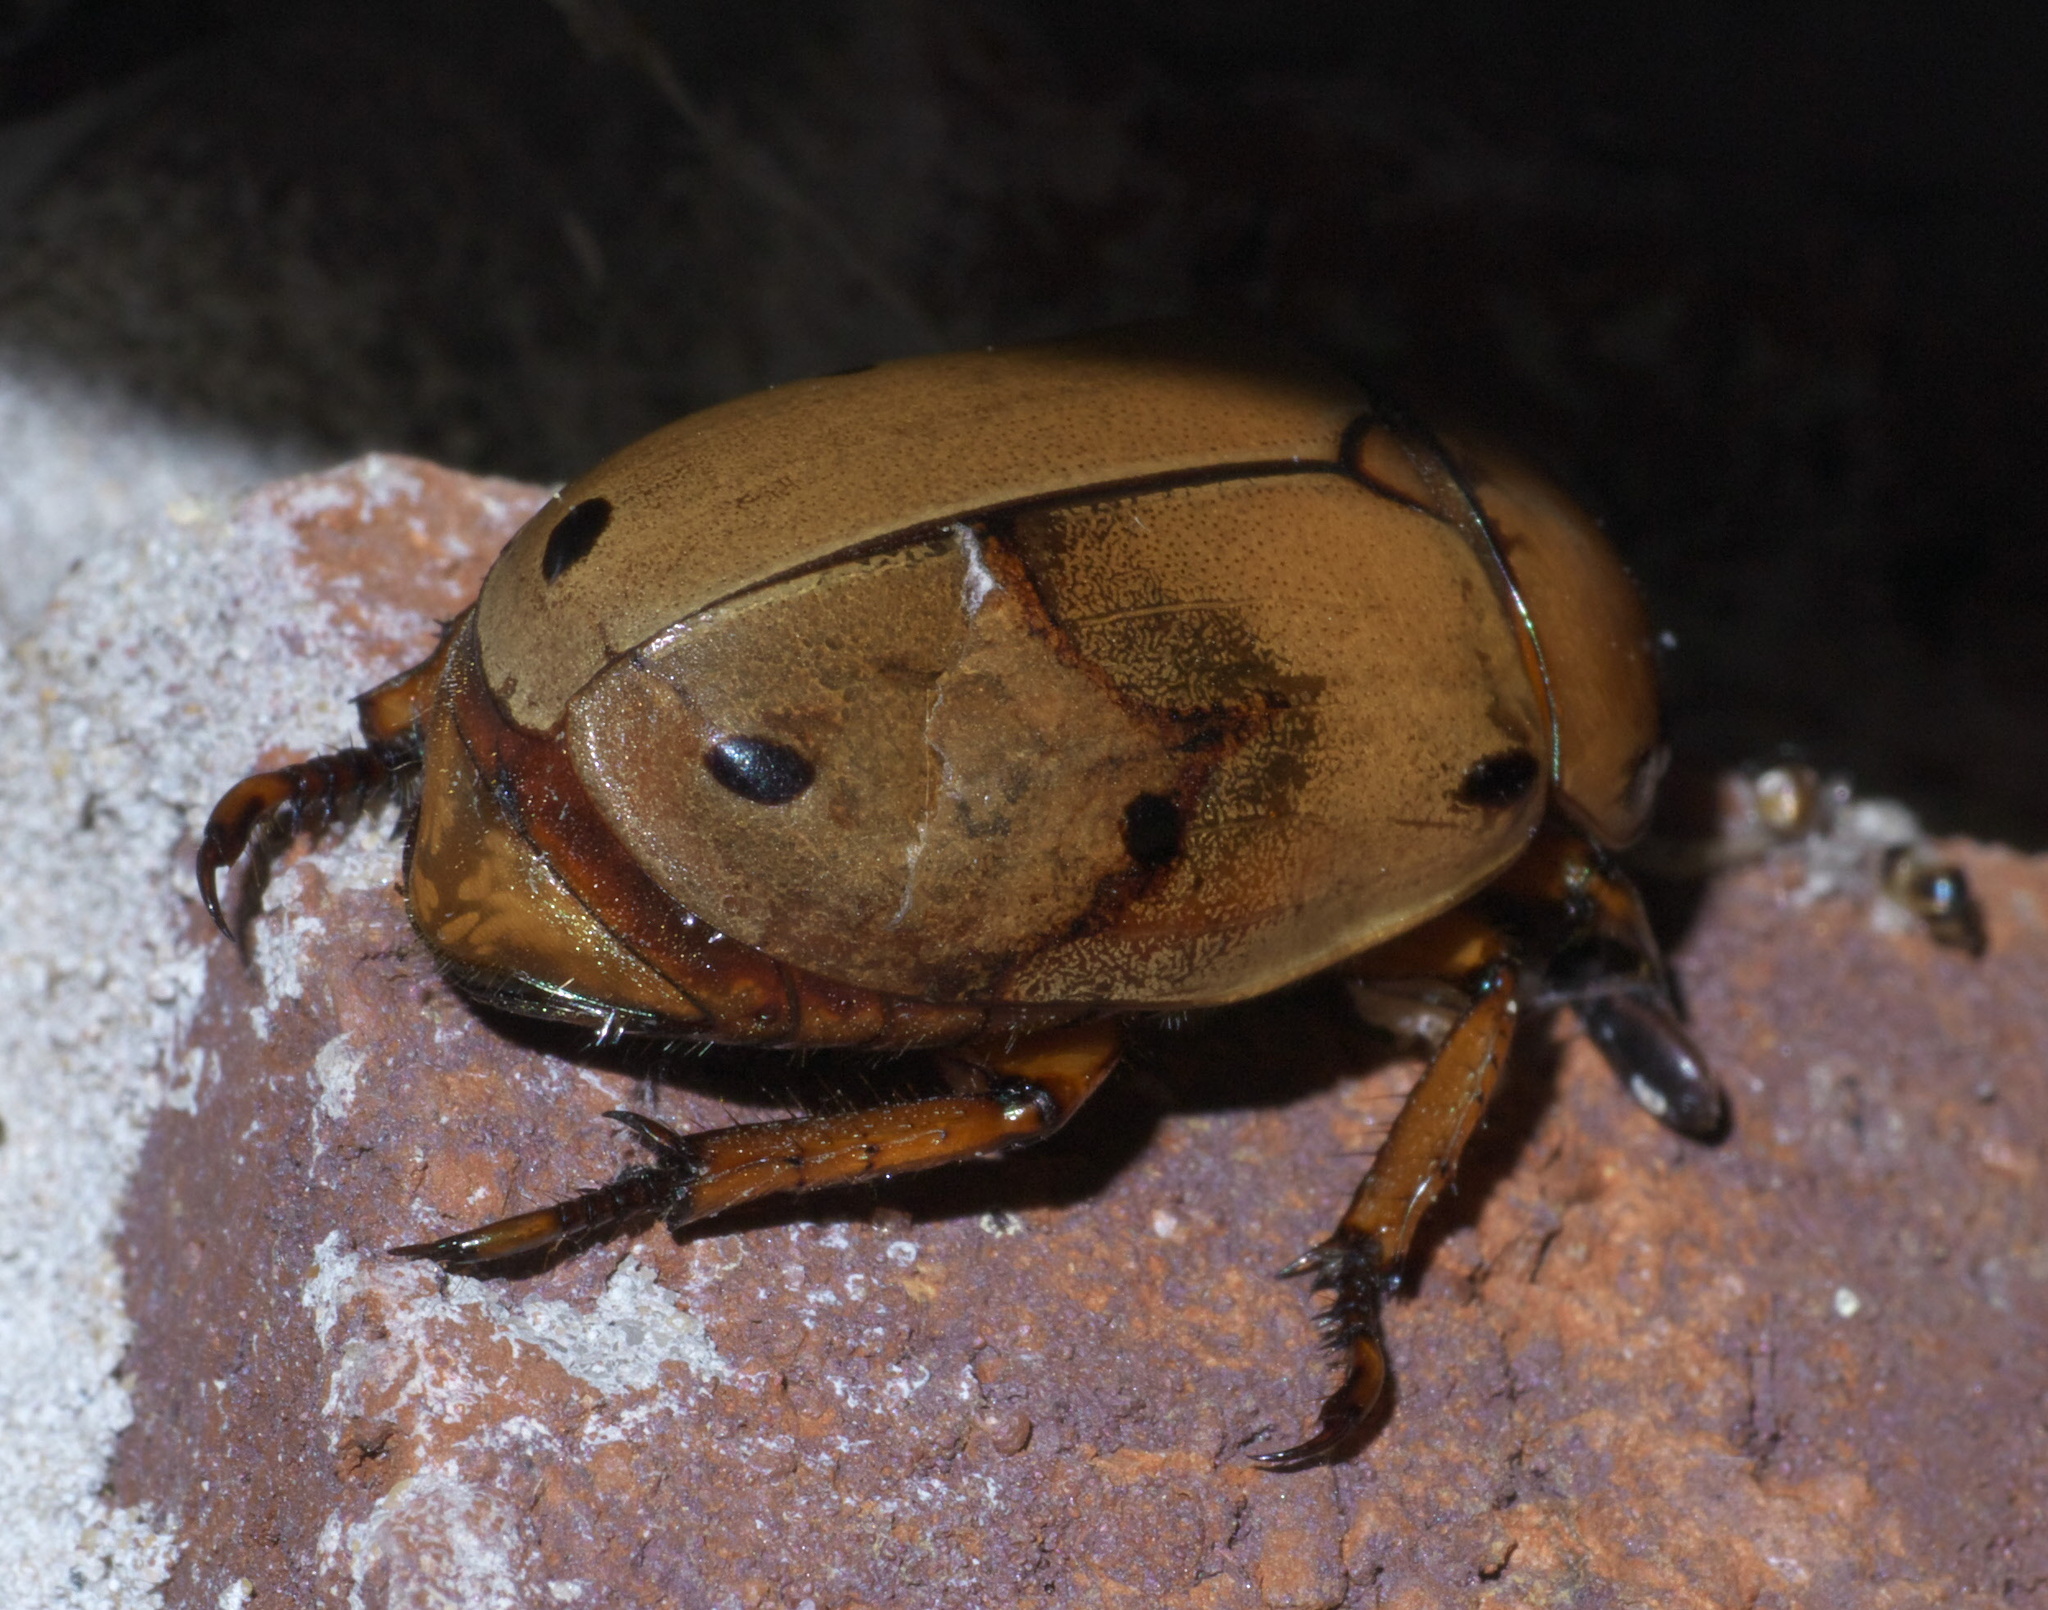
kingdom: Animalia
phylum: Arthropoda
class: Insecta
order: Coleoptera
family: Scarabaeidae
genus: Pelidnota
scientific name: Pelidnota punctata
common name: Grapevine beetle
